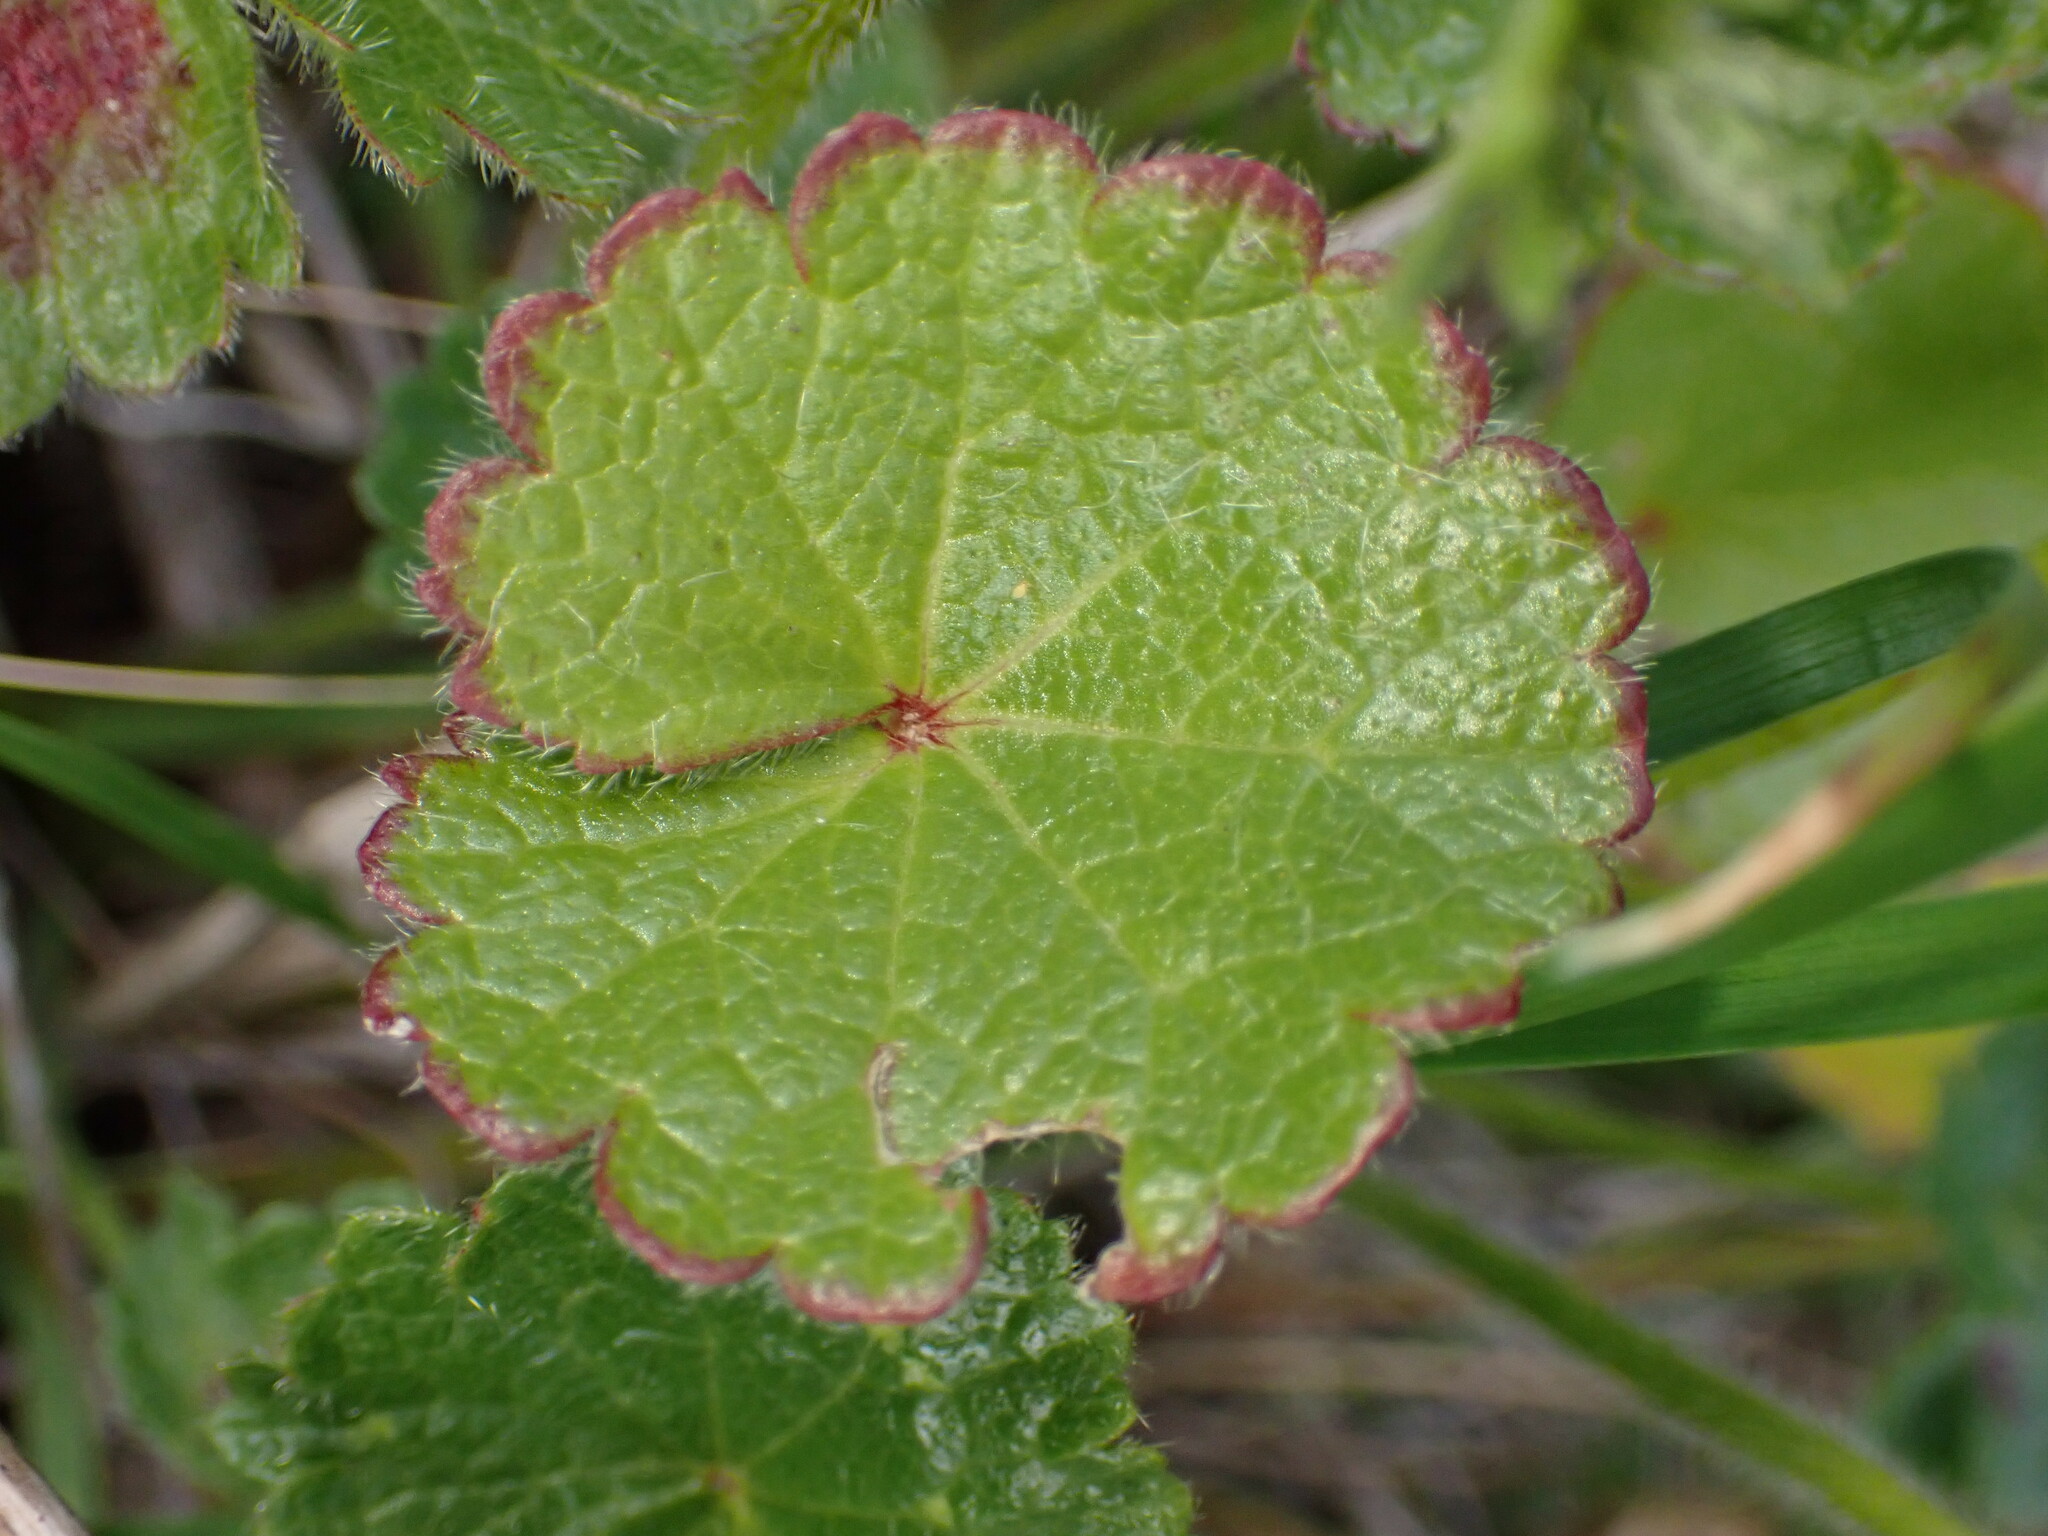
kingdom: Plantae
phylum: Tracheophyta
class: Magnoliopsida
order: Malvales
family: Malvaceae
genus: Sidalcea
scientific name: Sidalcea malviflora
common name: Greek mallow
